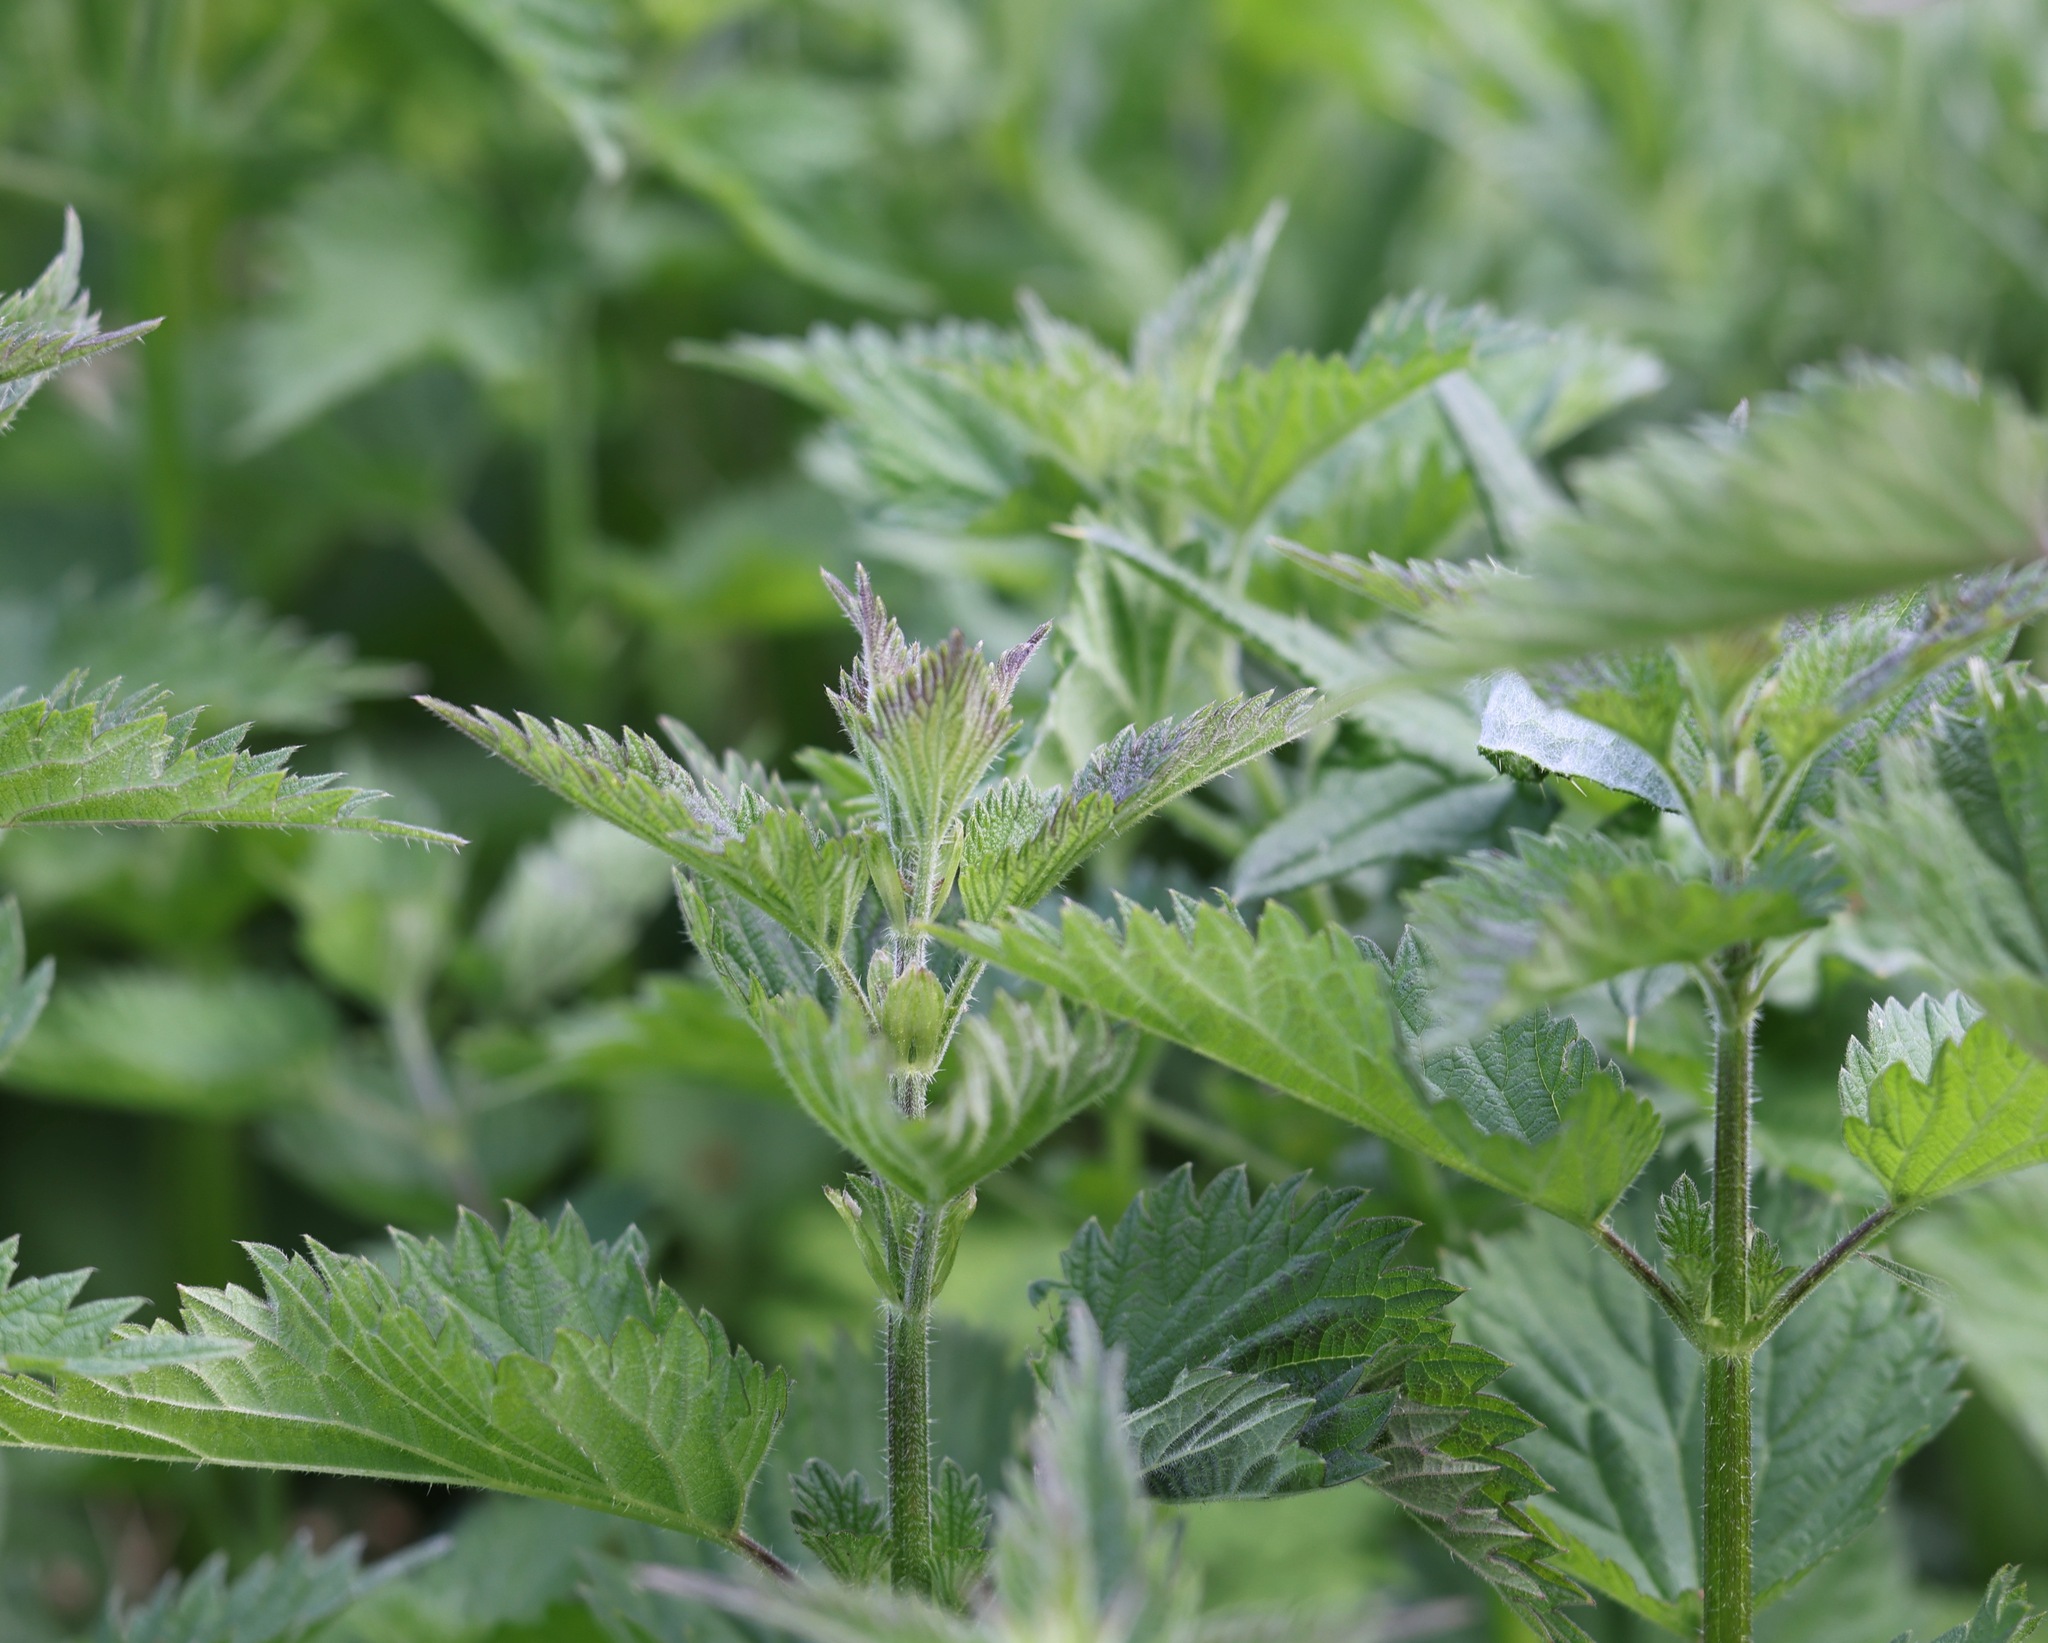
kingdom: Plantae
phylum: Tracheophyta
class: Magnoliopsida
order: Rosales
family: Urticaceae
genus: Urtica
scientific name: Urtica dioica
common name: Common nettle
